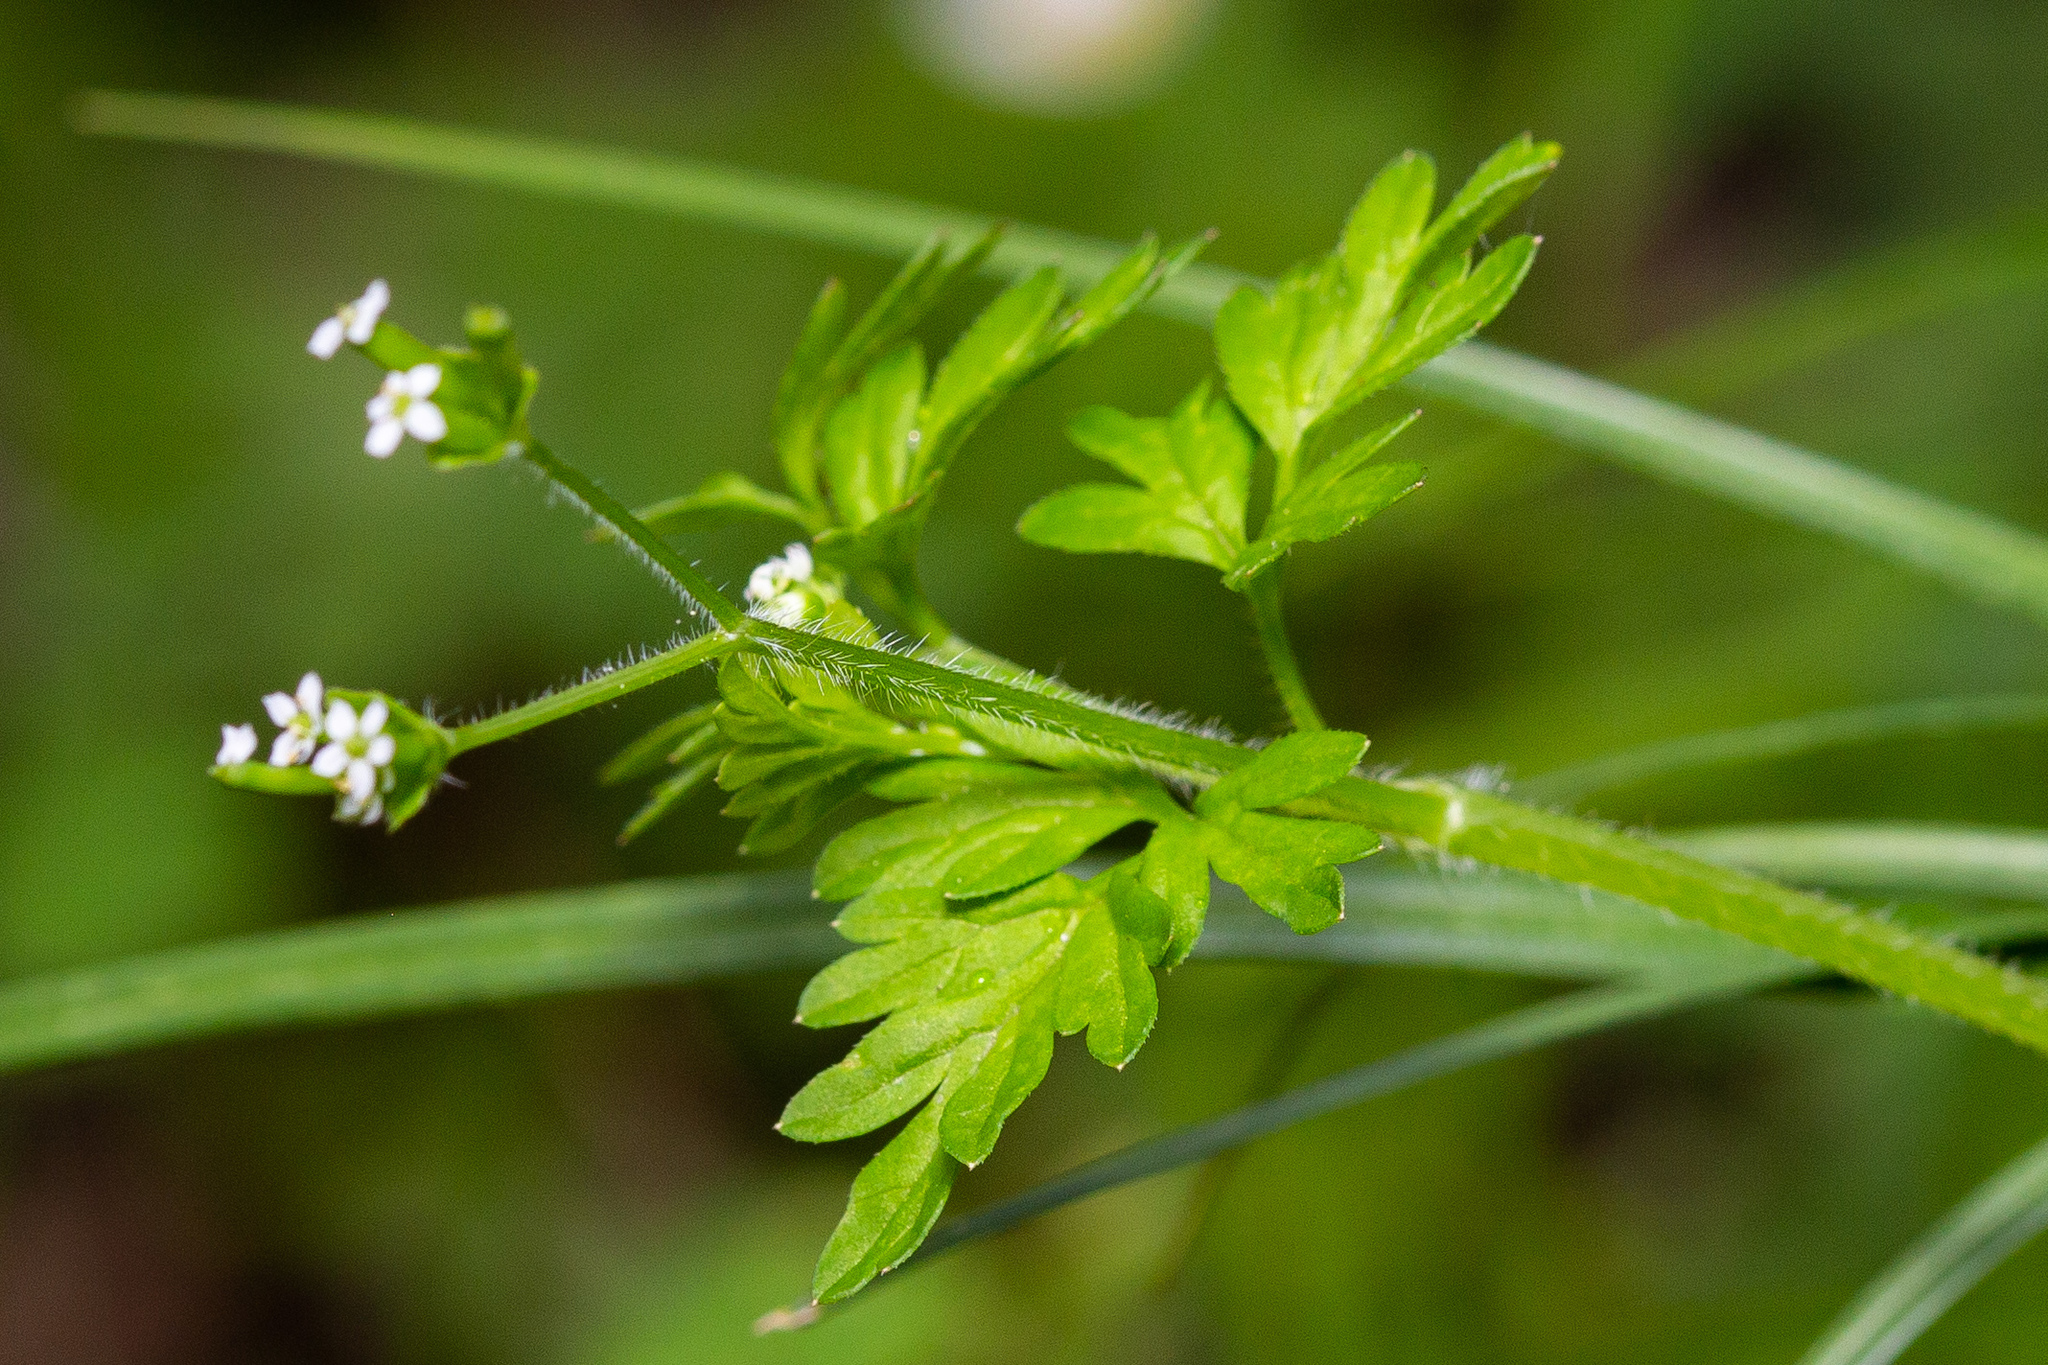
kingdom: Plantae
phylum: Tracheophyta
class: Magnoliopsida
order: Apiales
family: Apiaceae
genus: Chaerophyllum
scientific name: Chaerophyllum procumbens
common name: Spreading chervil
